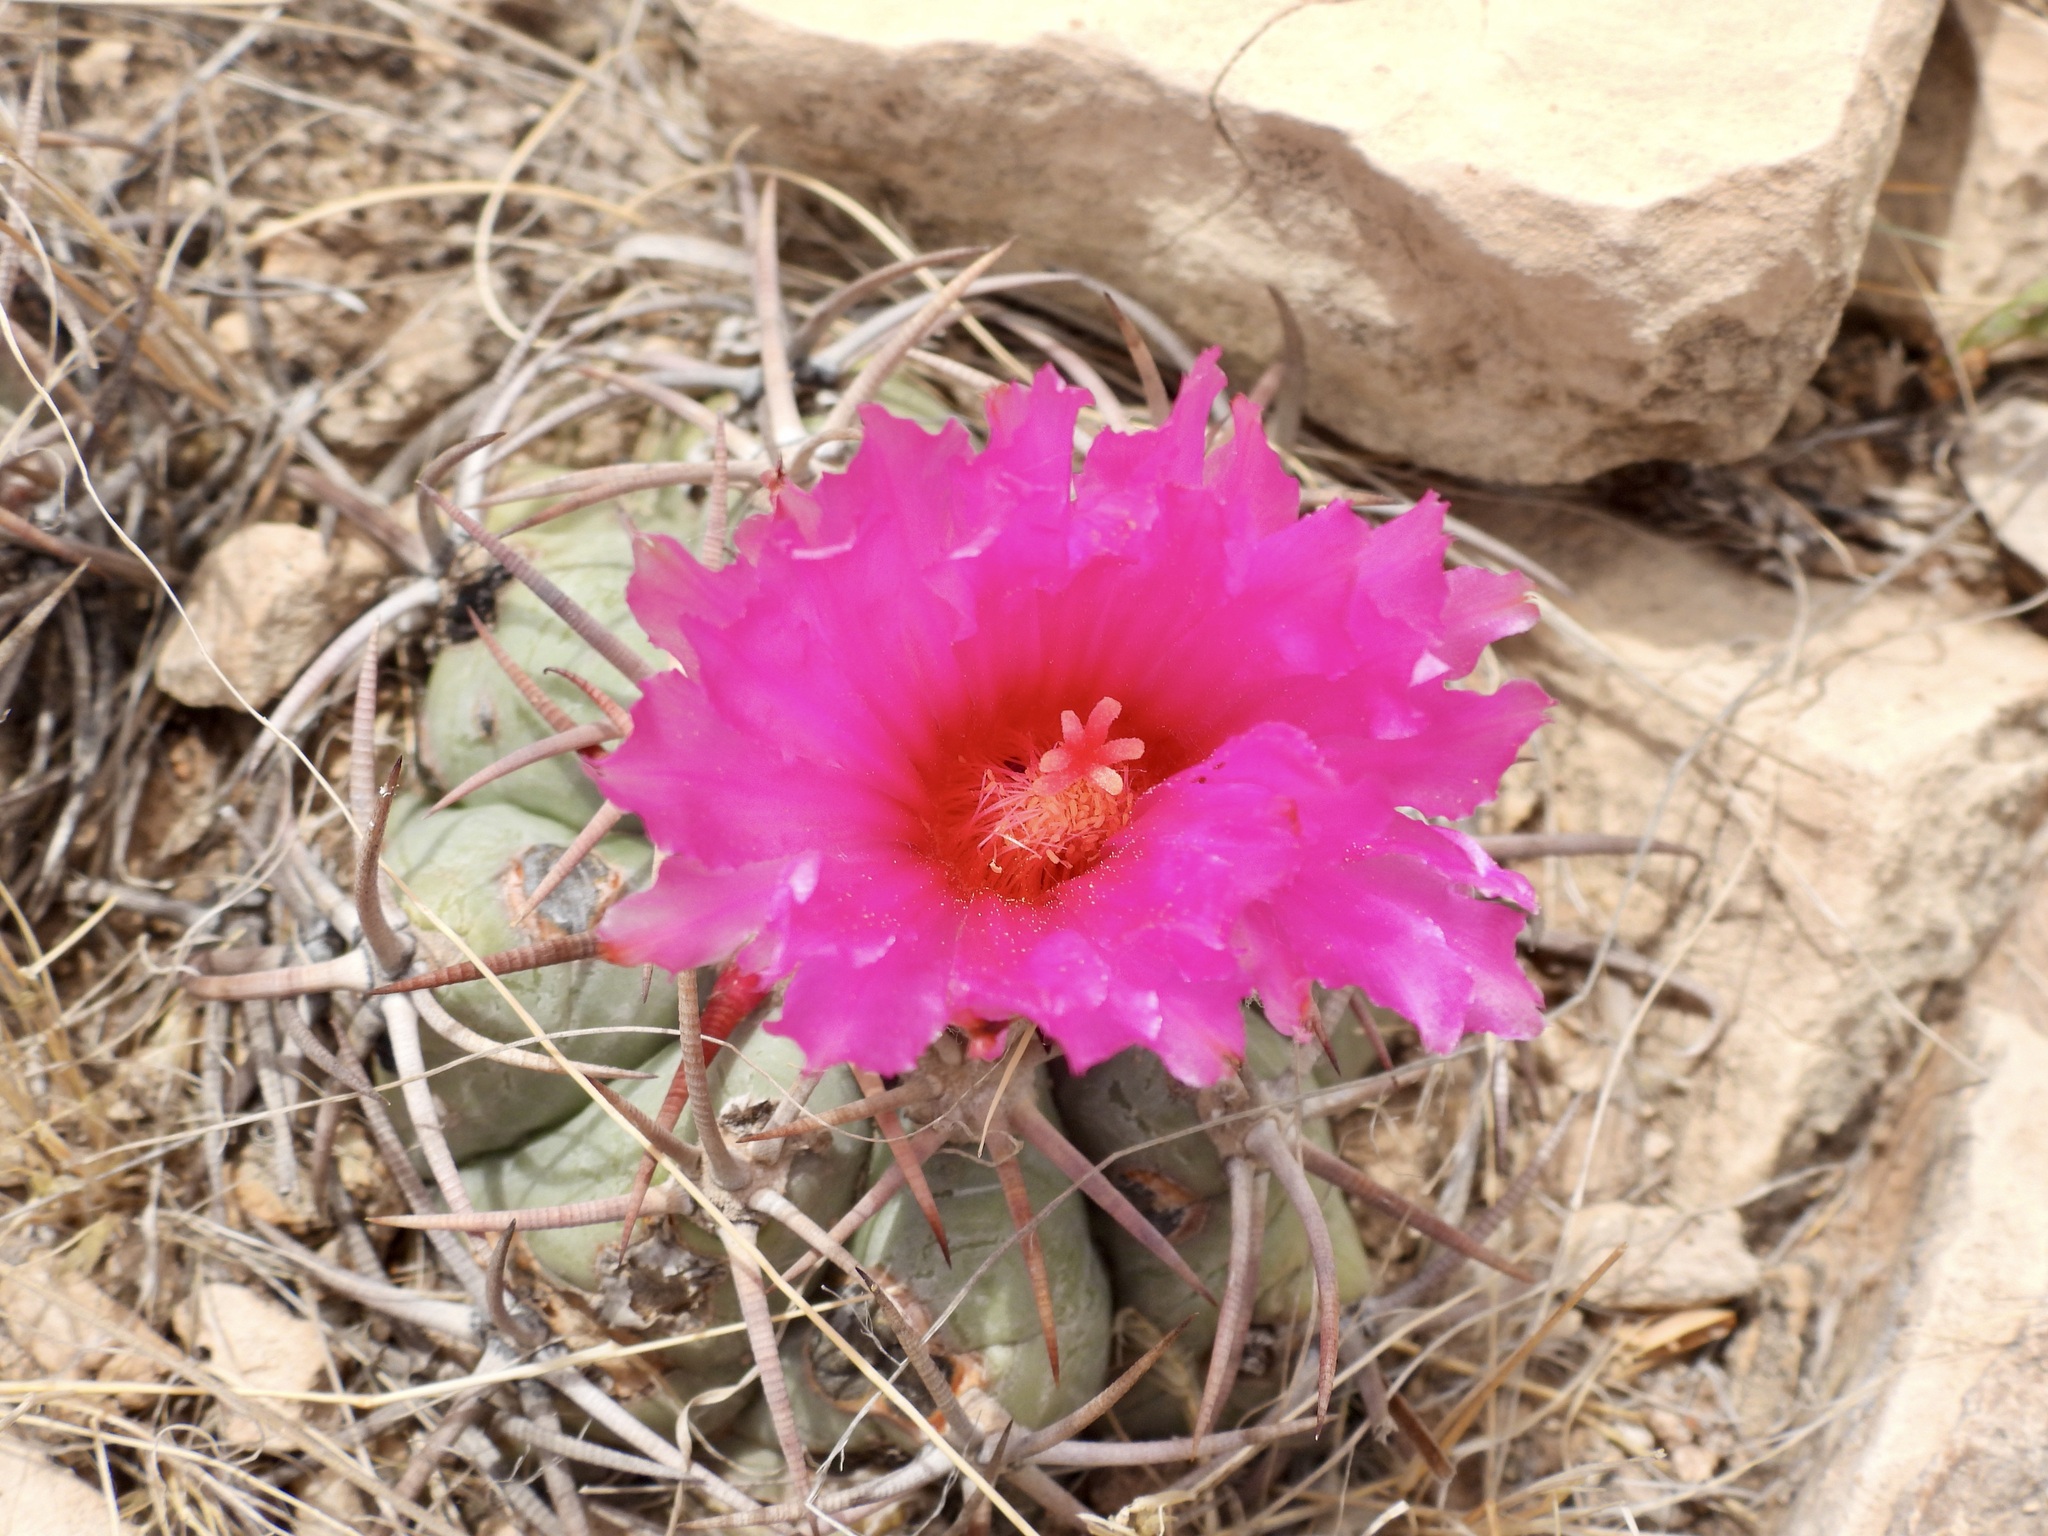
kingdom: Plantae
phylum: Tracheophyta
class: Magnoliopsida
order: Caryophyllales
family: Cactaceae
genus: Echinocactus
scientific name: Echinocactus horizonthalonius
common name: Devilshead
